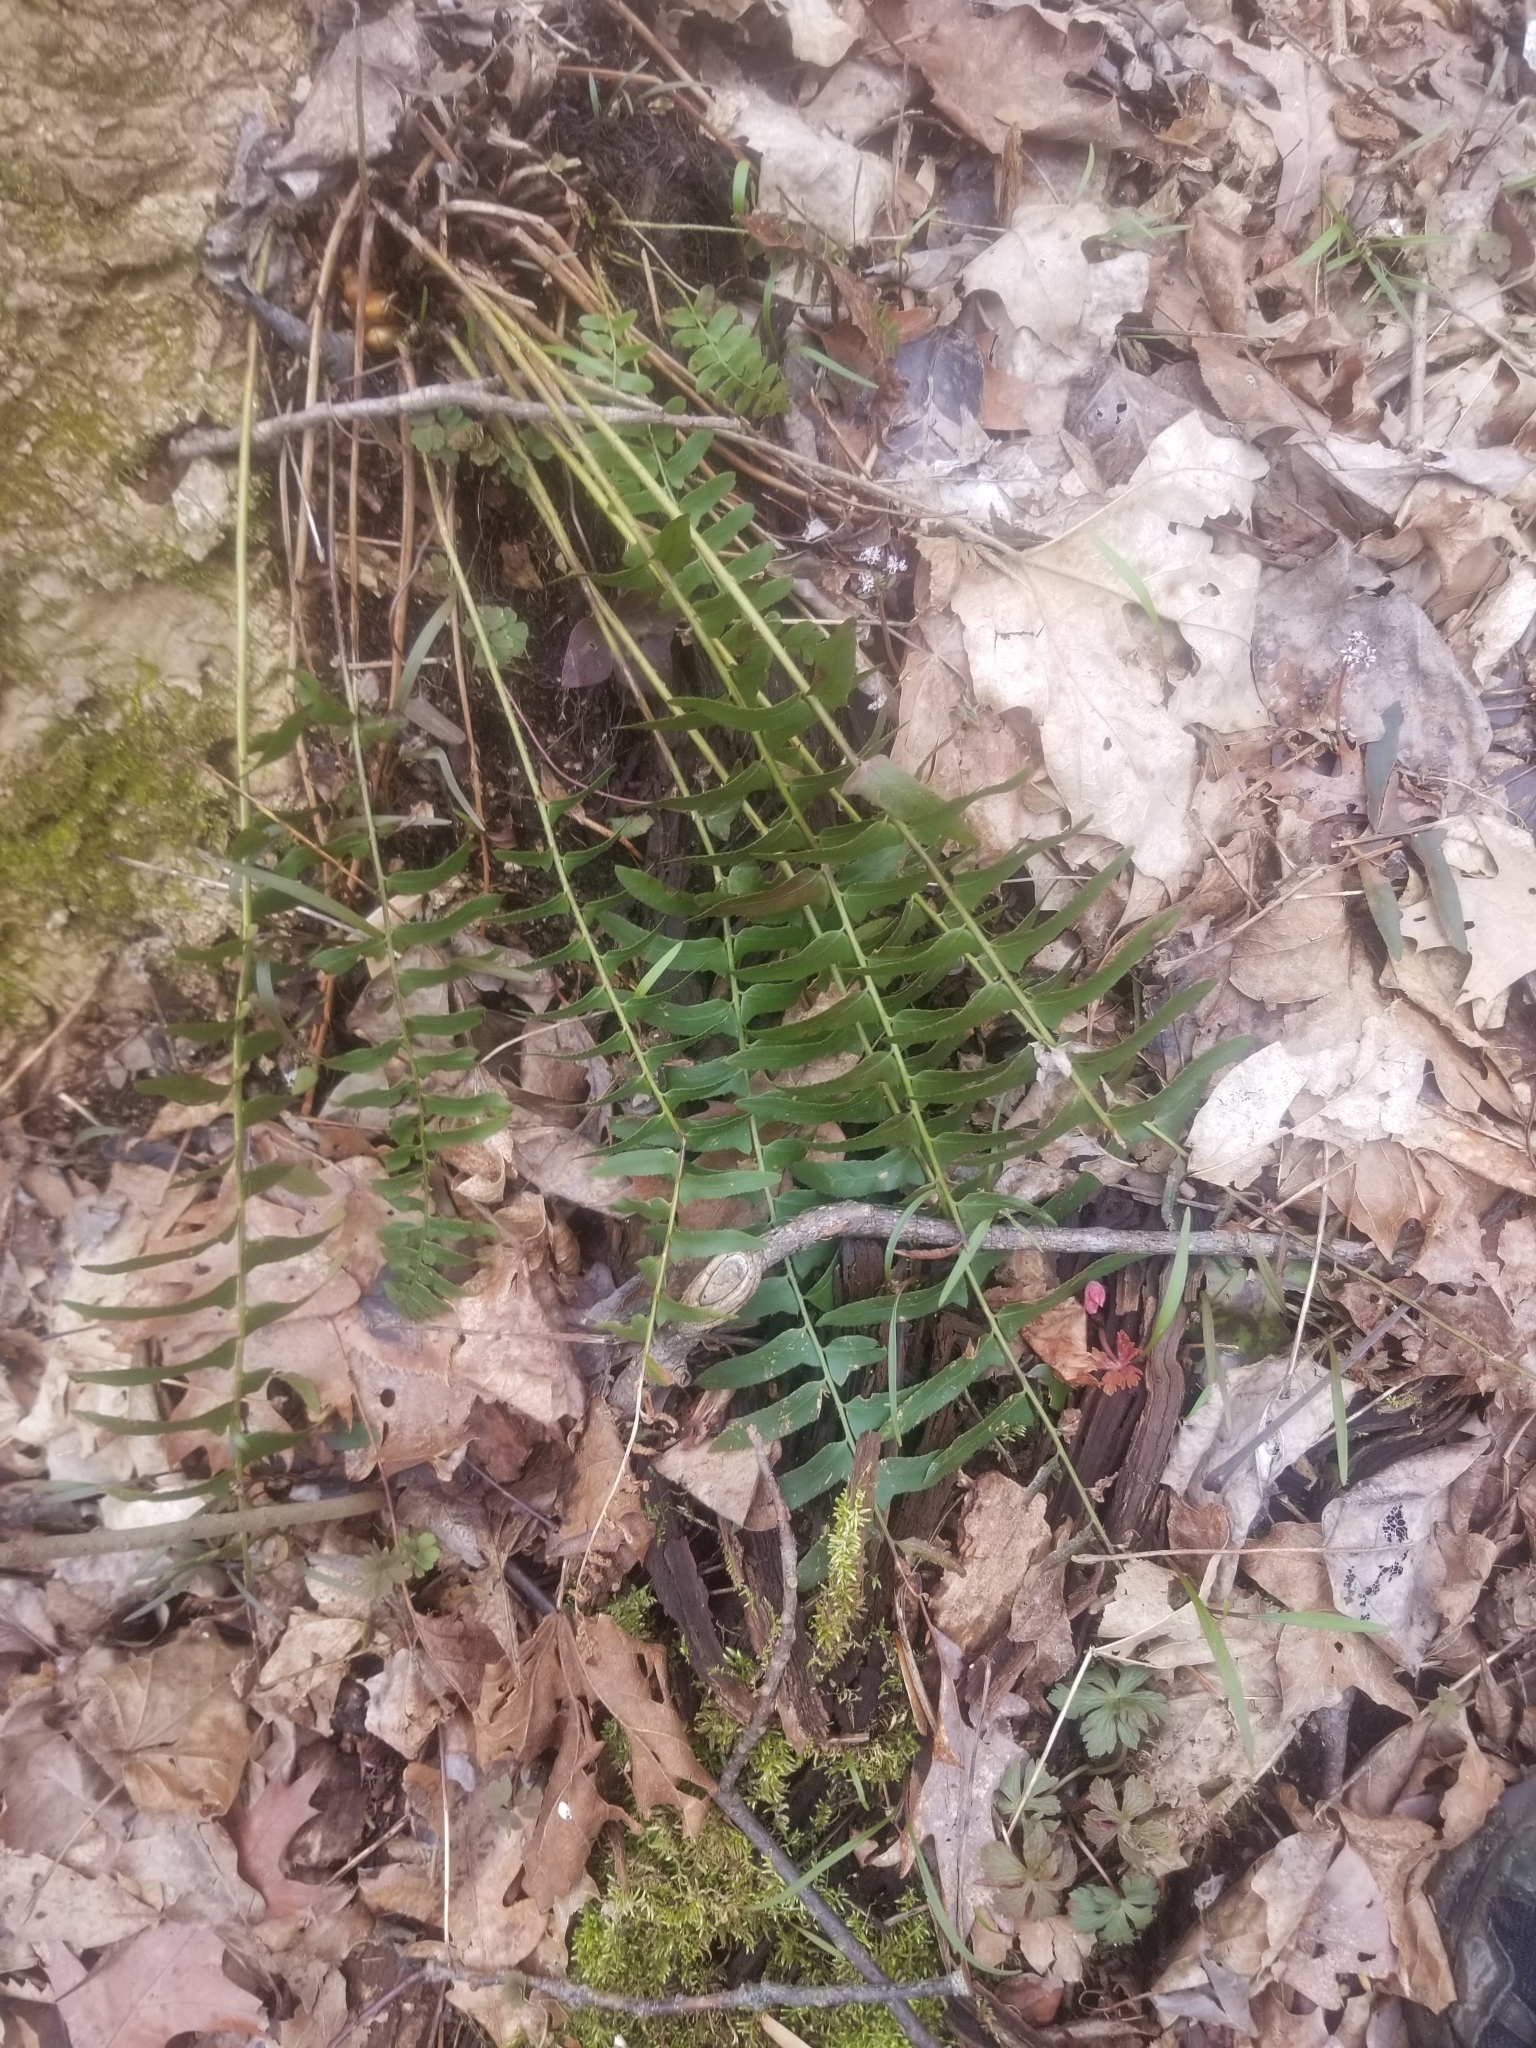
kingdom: Plantae
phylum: Tracheophyta
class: Polypodiopsida
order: Polypodiales
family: Dryopteridaceae
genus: Polystichum
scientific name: Polystichum acrostichoides
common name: Christmas fern
